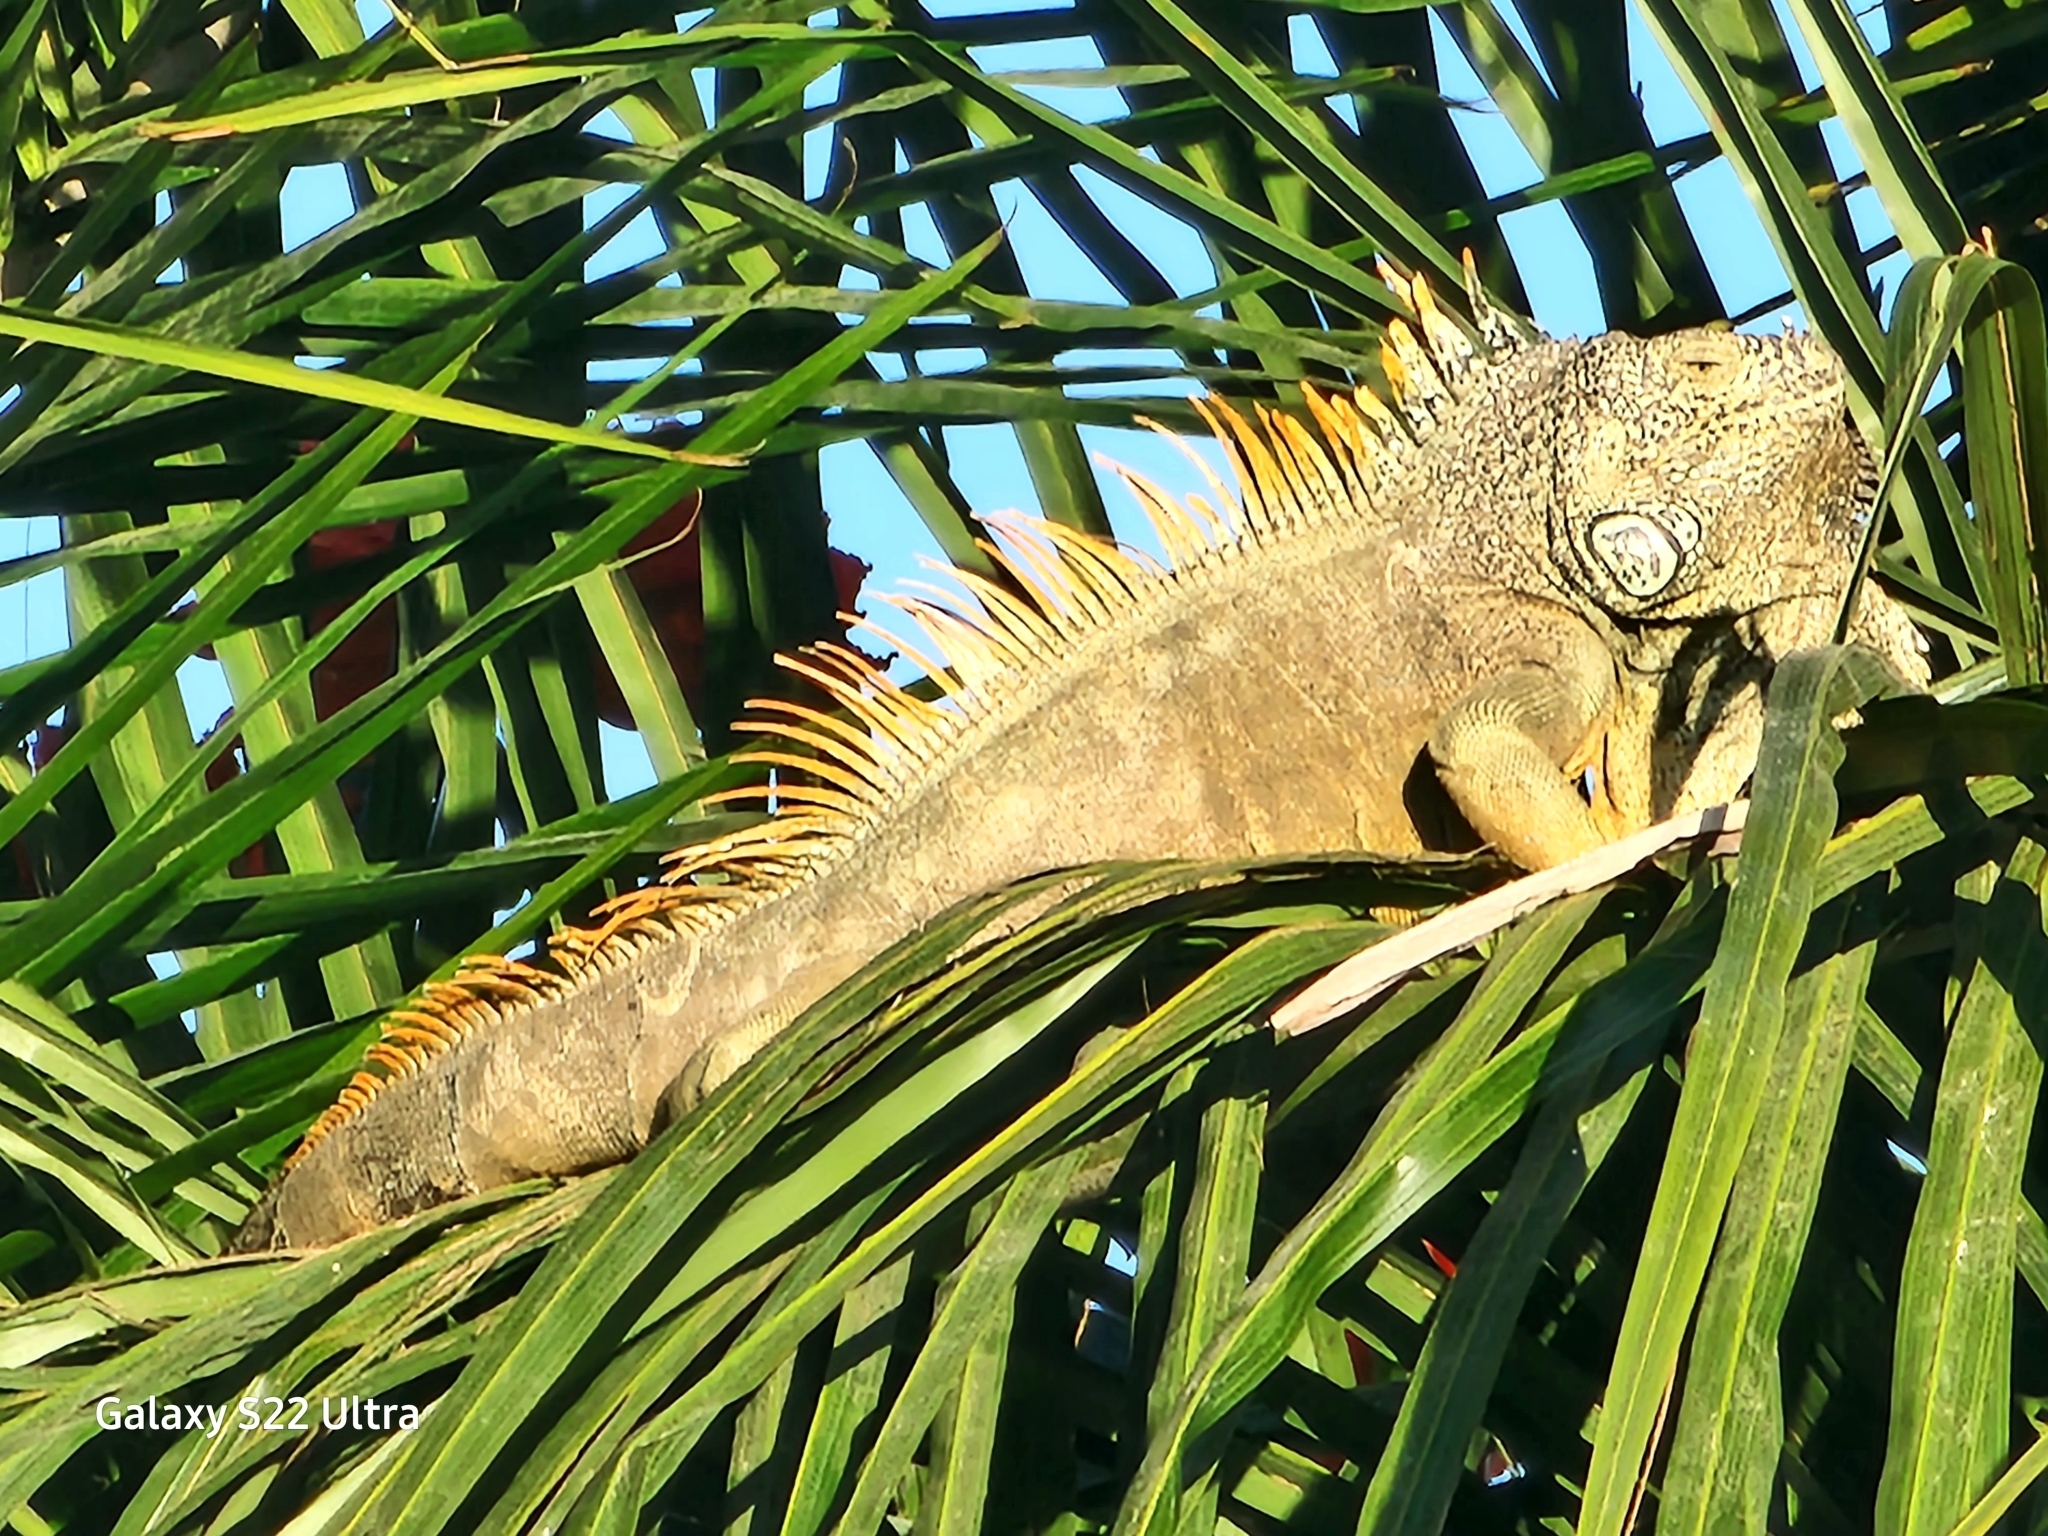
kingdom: Animalia
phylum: Chordata
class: Squamata
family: Iguanidae
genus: Iguana
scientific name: Iguana iguana
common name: Green iguana
